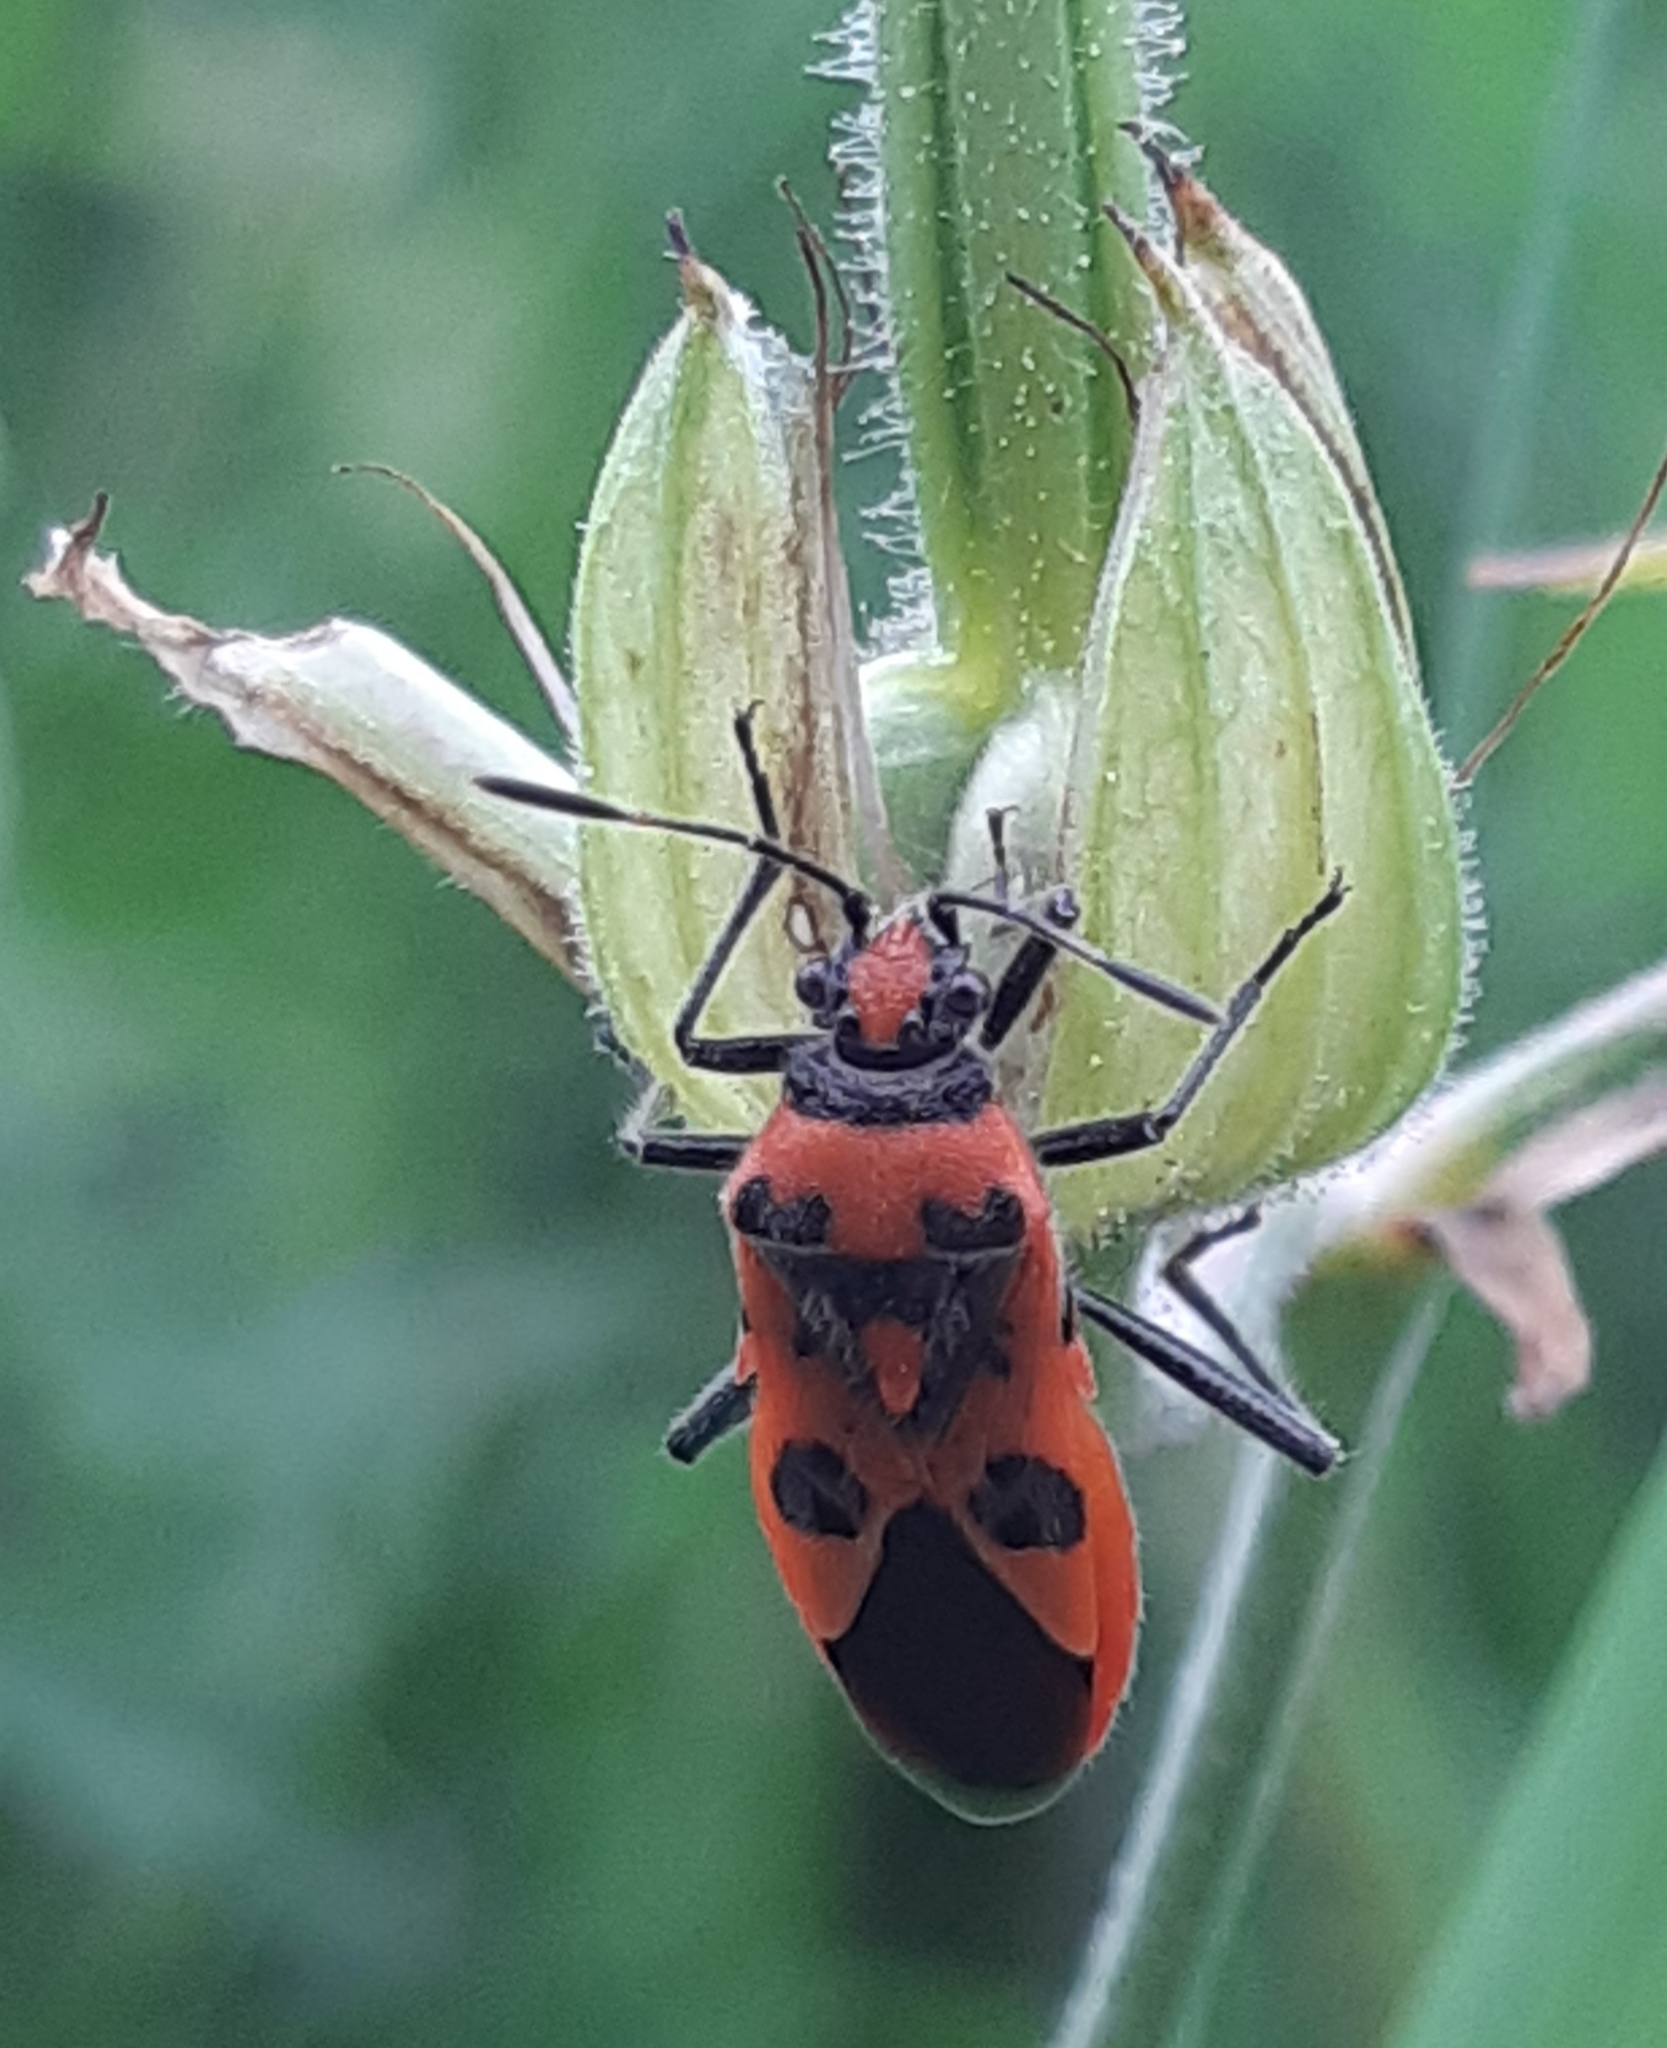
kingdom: Animalia
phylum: Arthropoda
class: Insecta
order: Hemiptera
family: Rhopalidae
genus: Corizus
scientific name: Corizus hyoscyami
